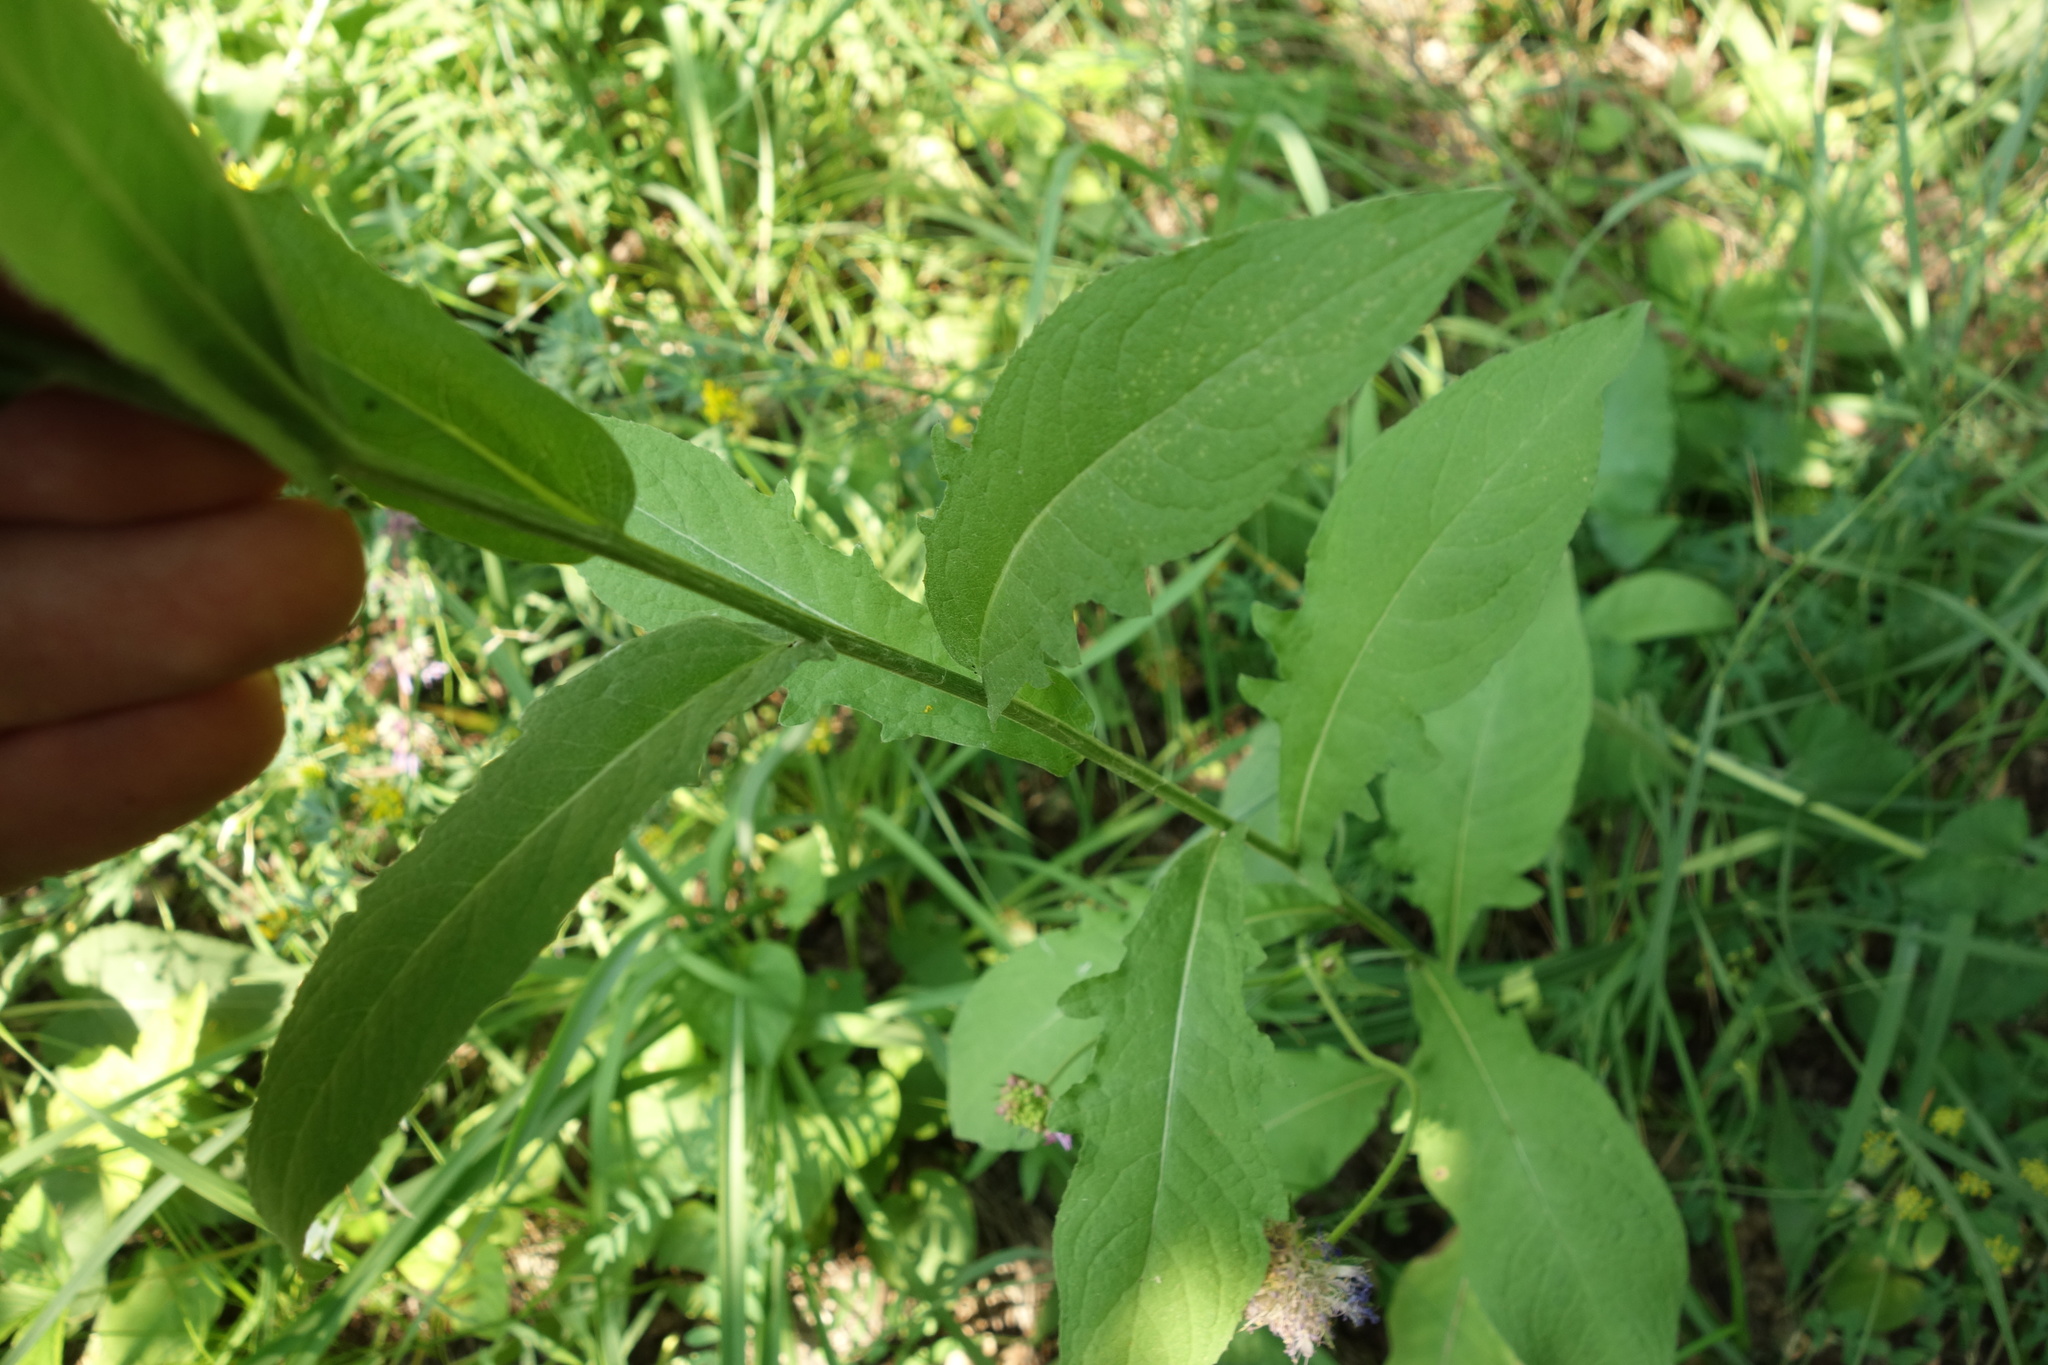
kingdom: Plantae
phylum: Tracheophyta
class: Magnoliopsida
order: Asterales
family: Asteraceae
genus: Centaurea
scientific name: Centaurea pseudophrygia
